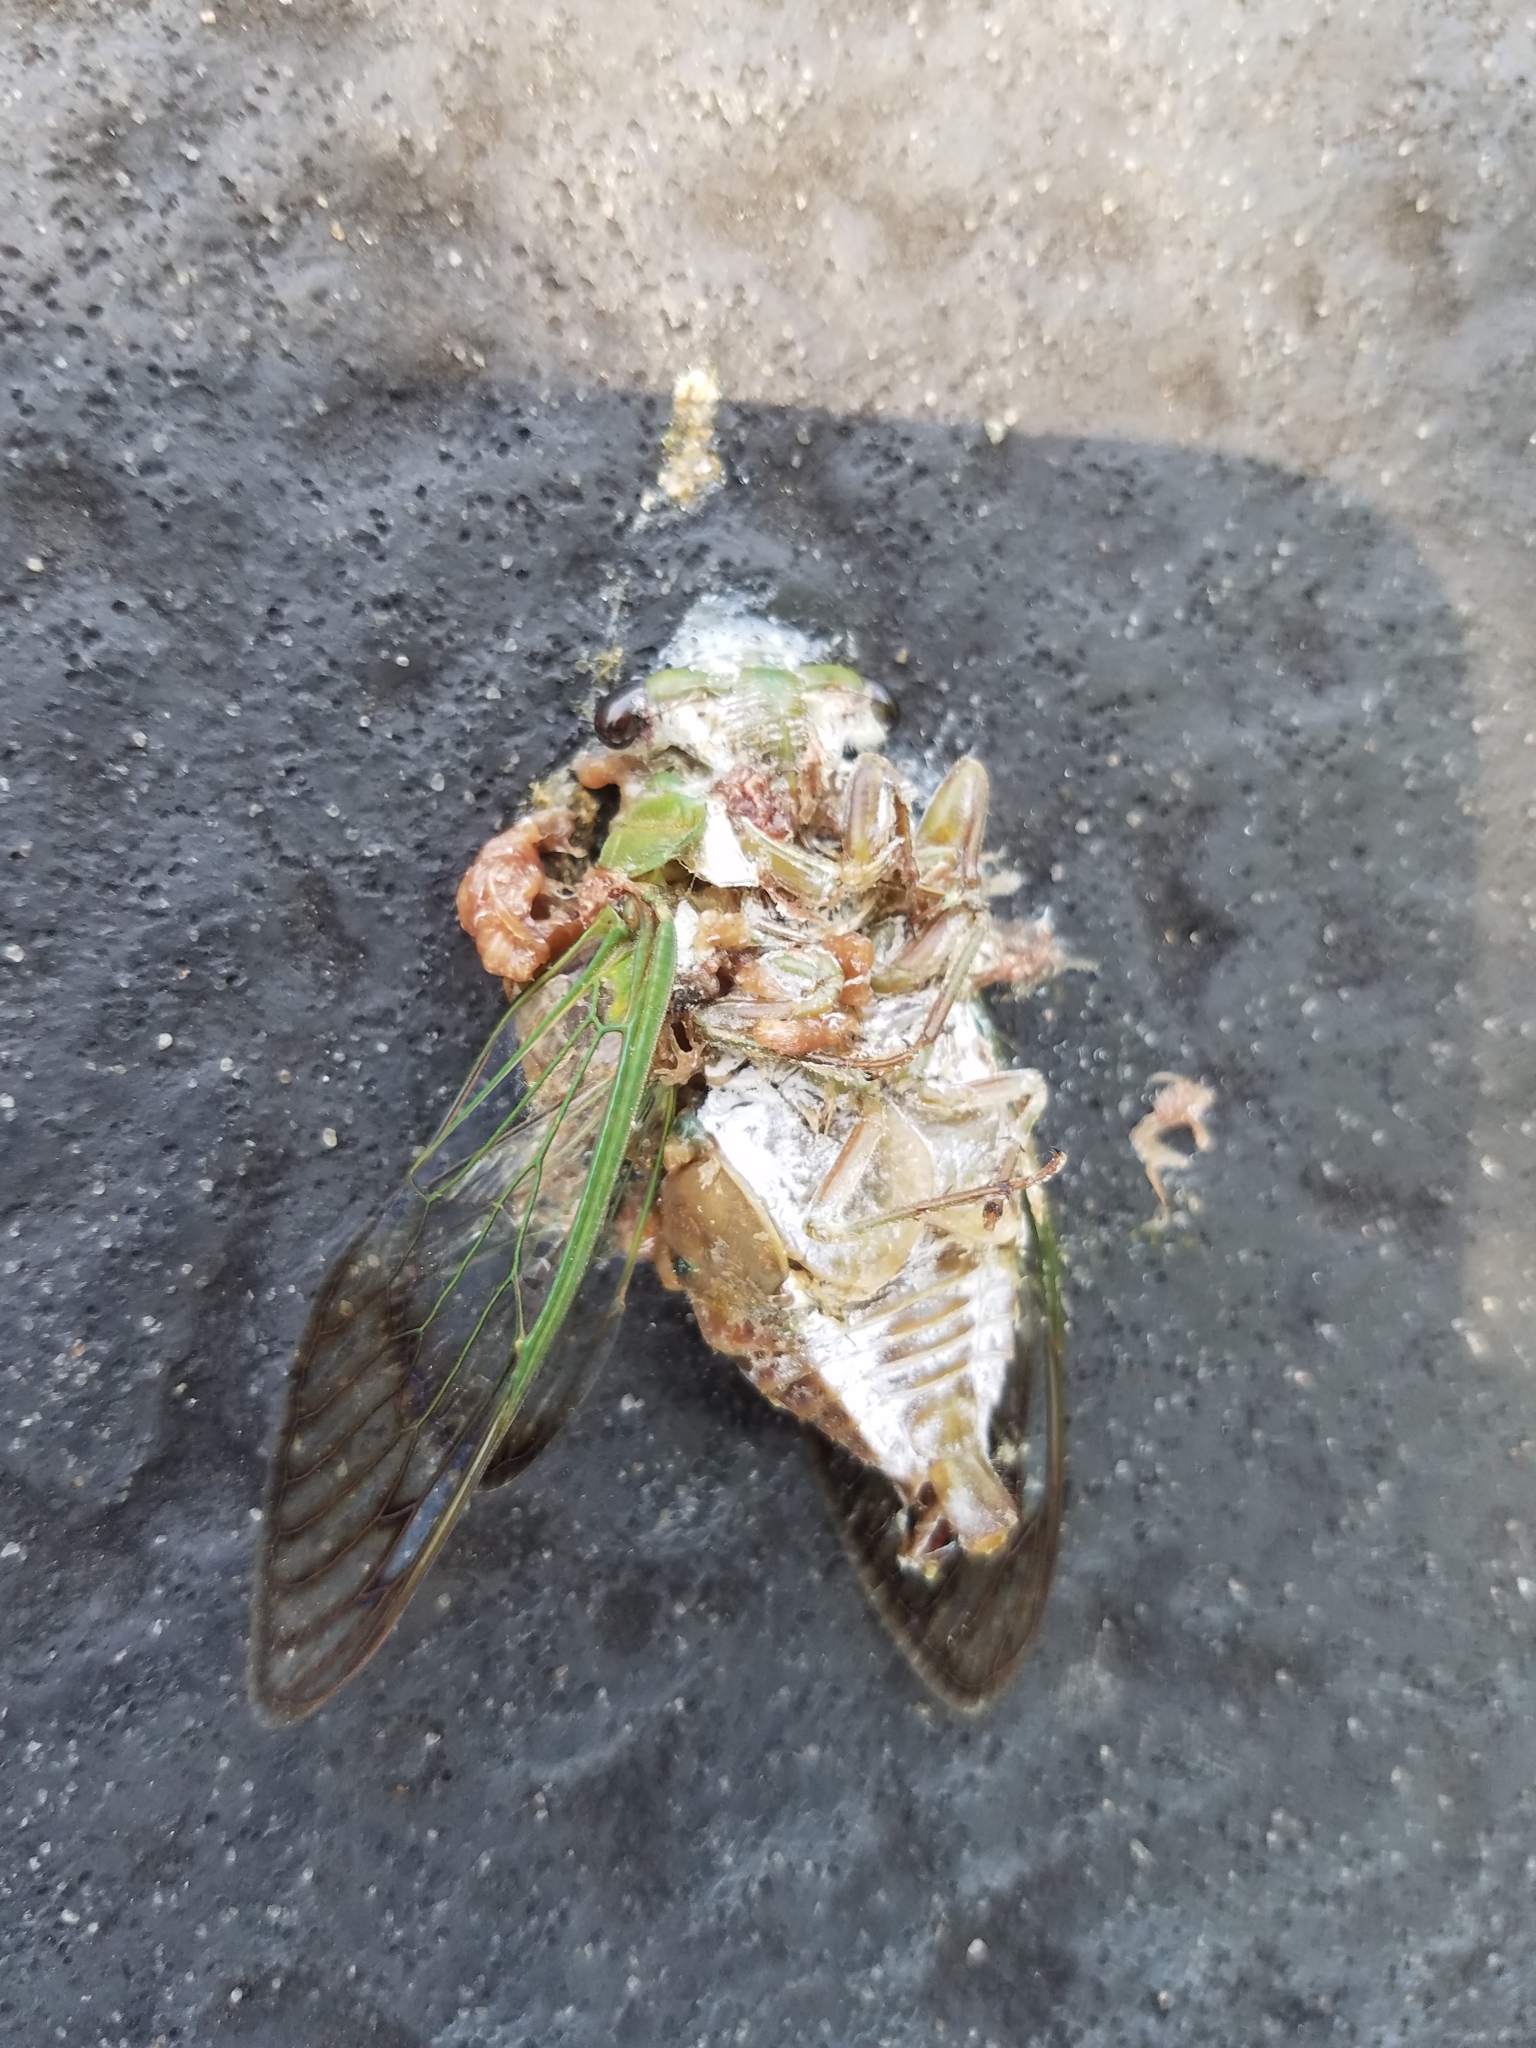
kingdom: Animalia
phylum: Arthropoda
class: Insecta
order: Hemiptera
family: Cicadidae
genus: Neotibicen
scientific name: Neotibicen superbus
